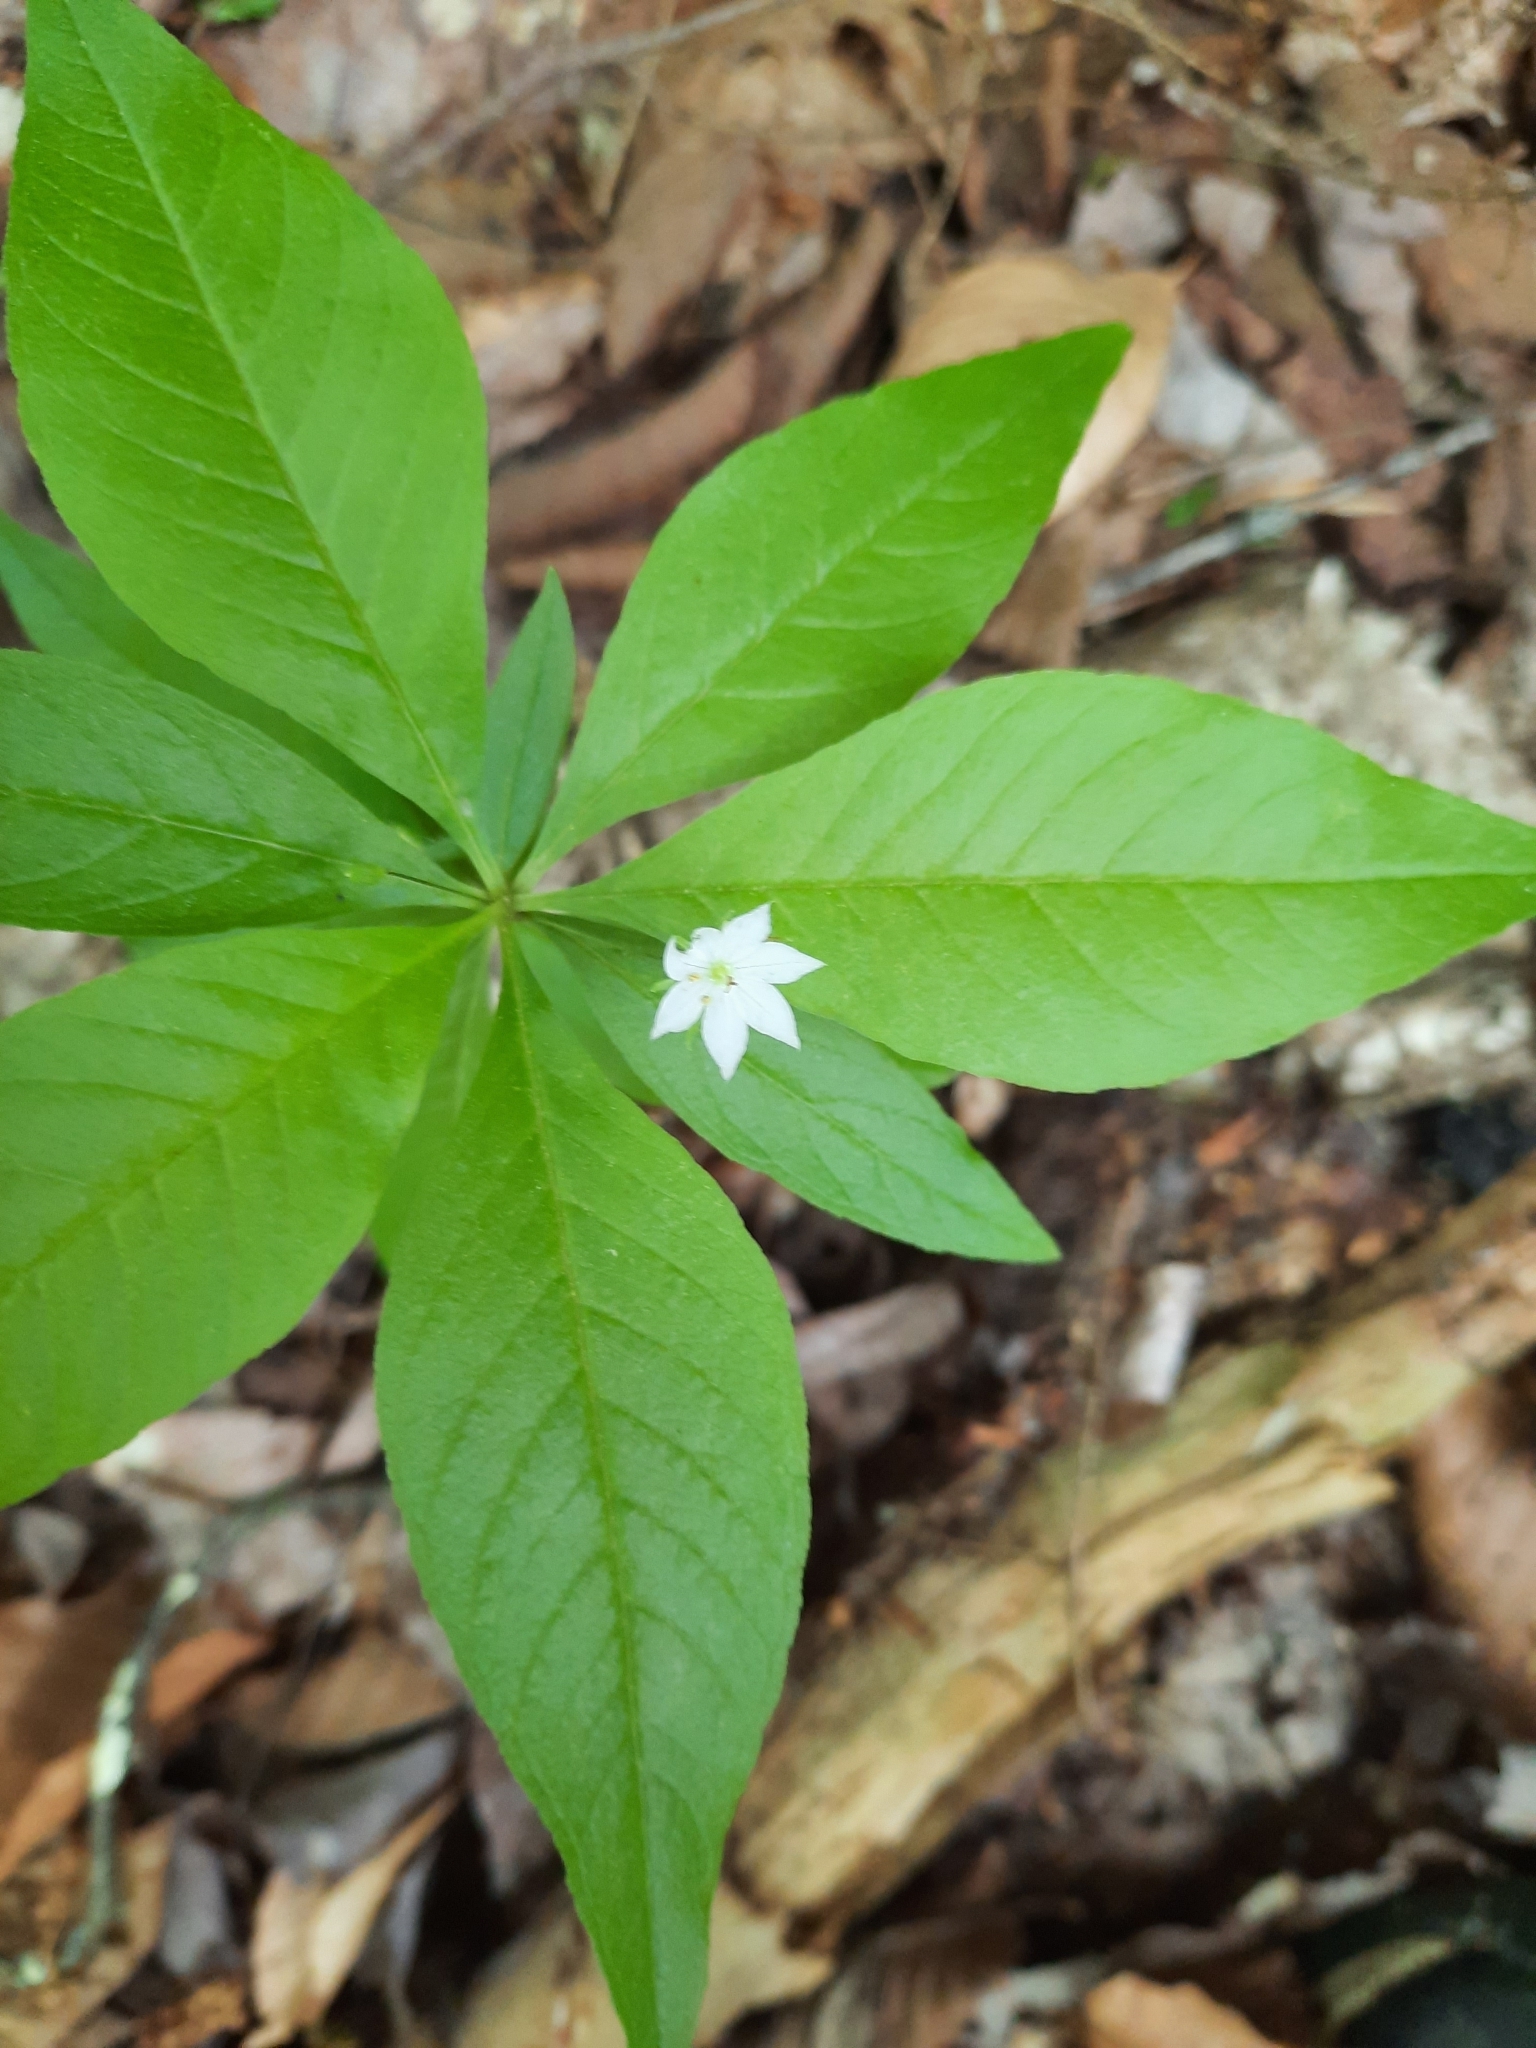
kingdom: Plantae
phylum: Tracheophyta
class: Magnoliopsida
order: Ericales
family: Primulaceae
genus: Lysimachia
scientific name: Lysimachia borealis
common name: American starflower
